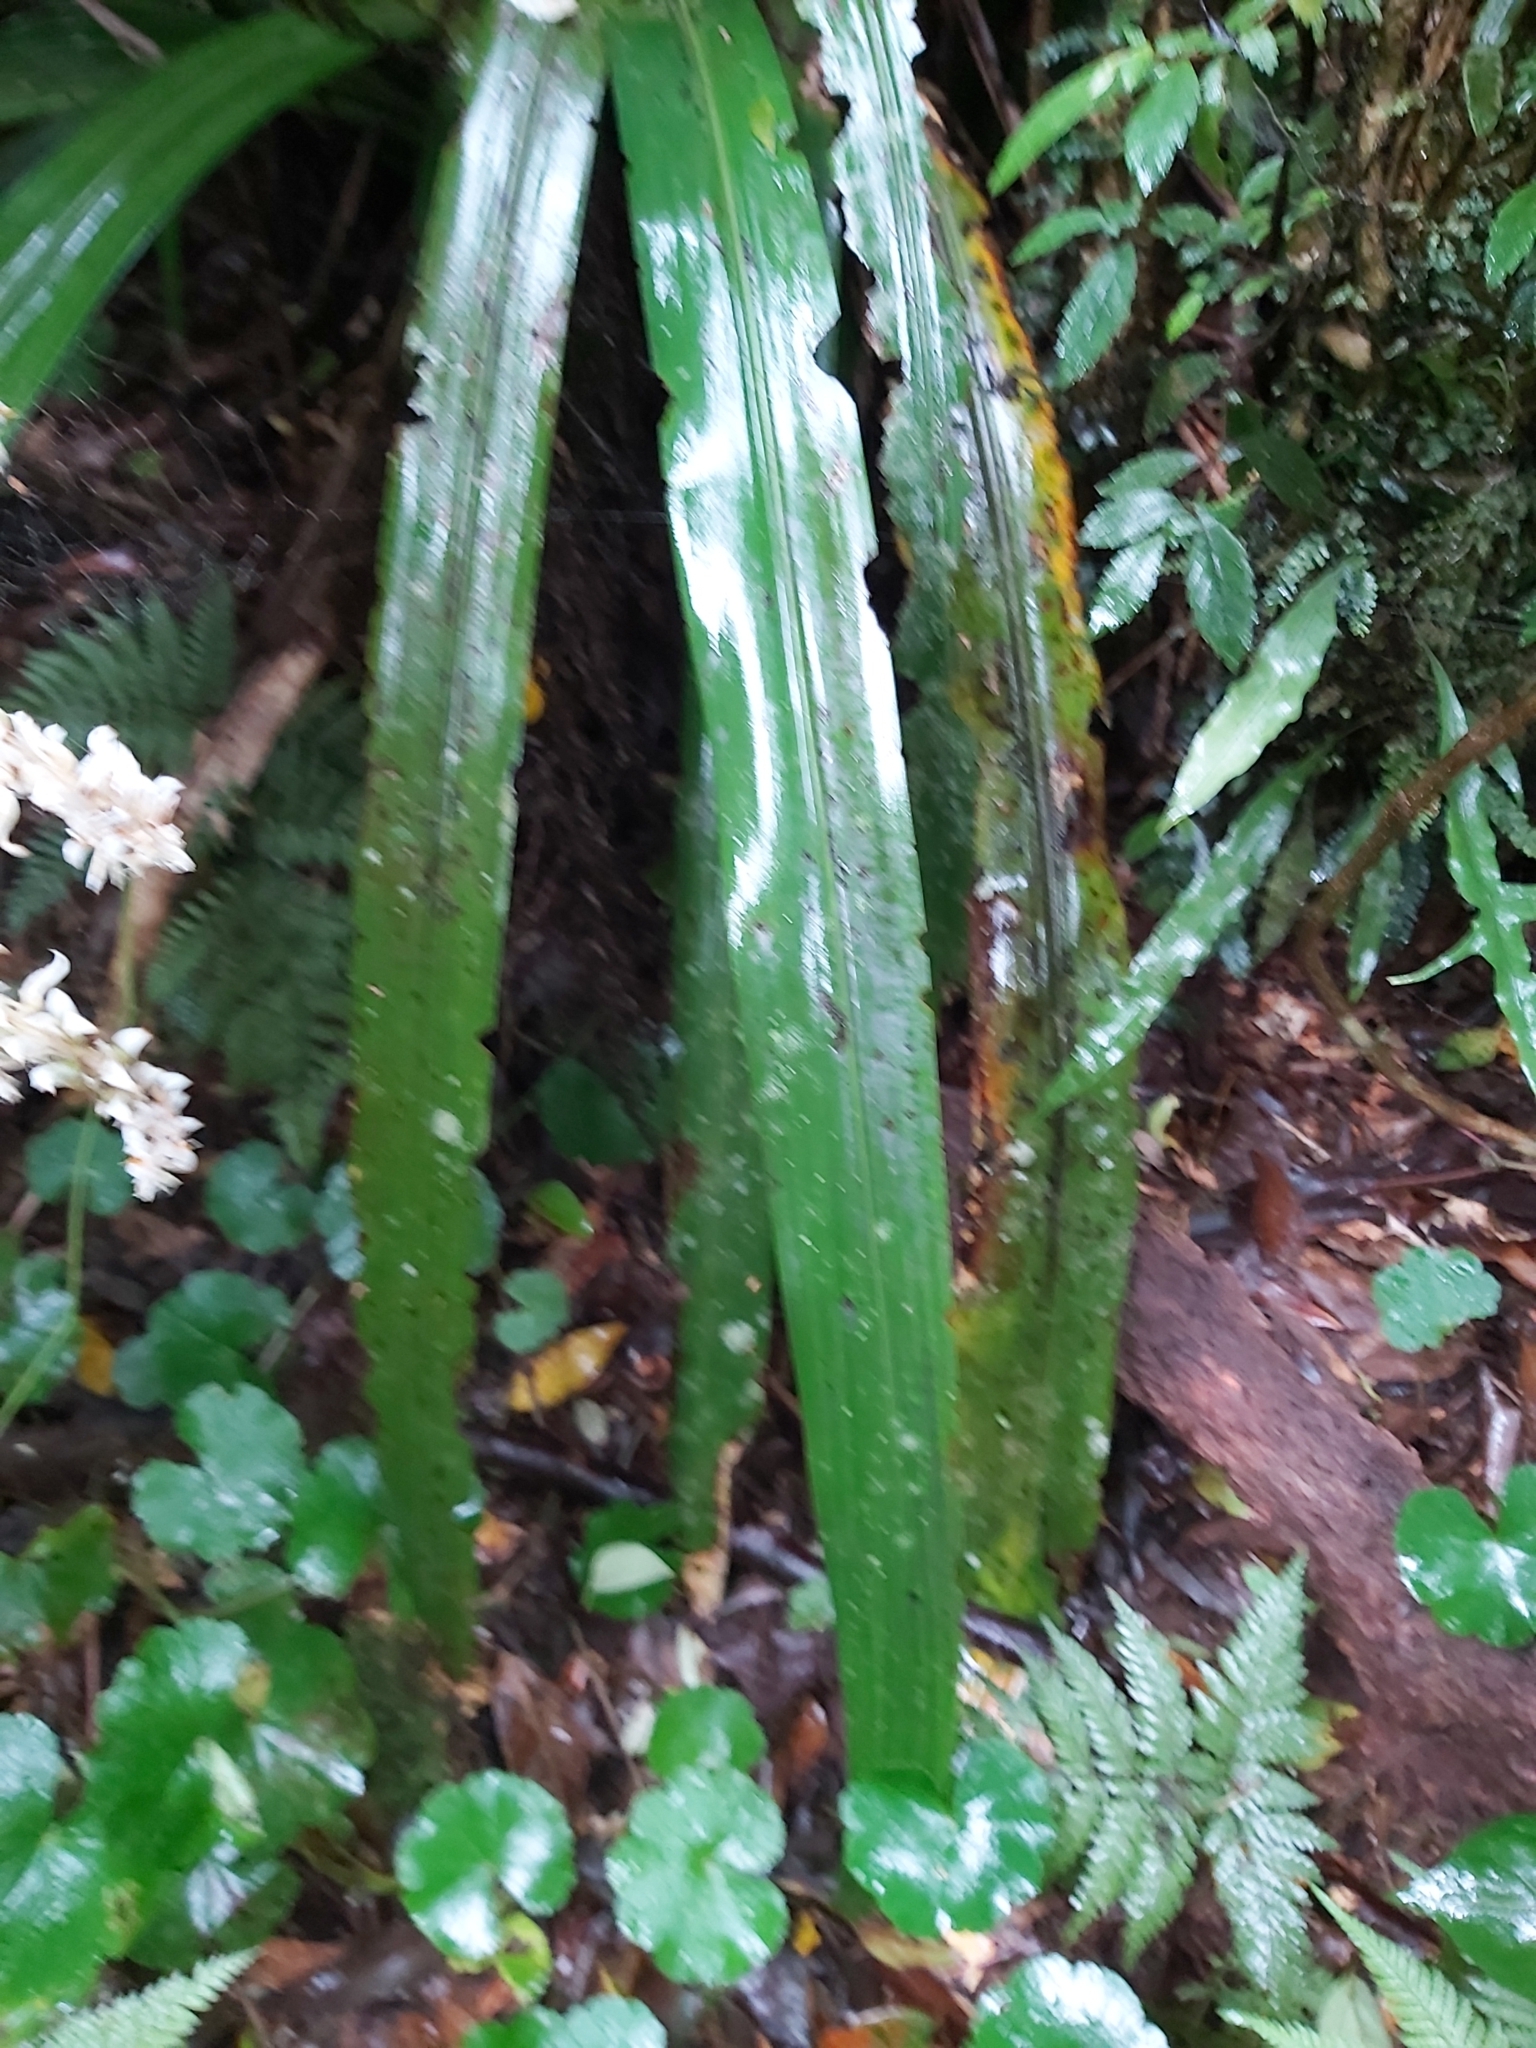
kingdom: Plantae
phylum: Tracheophyta
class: Liliopsida
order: Commelinales
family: Philydraceae
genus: Helmholtzia
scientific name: Helmholtzia glaberrima
